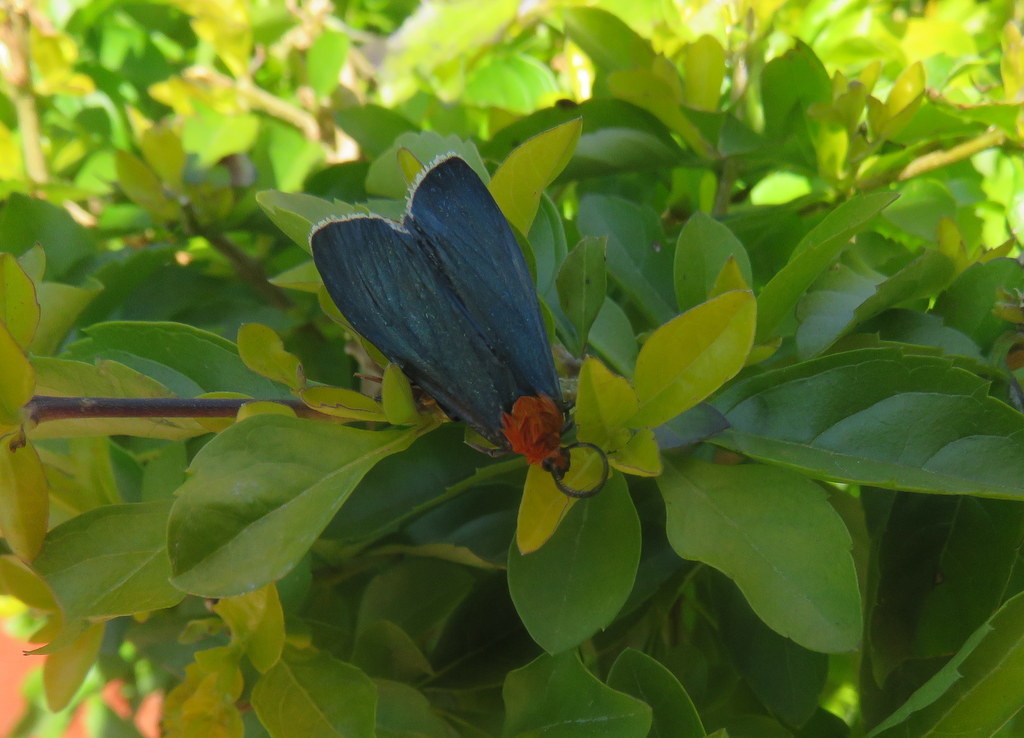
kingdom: Animalia
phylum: Arthropoda
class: Insecta
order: Lepidoptera
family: Erebidae
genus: Apistosia
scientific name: Apistosia judas
